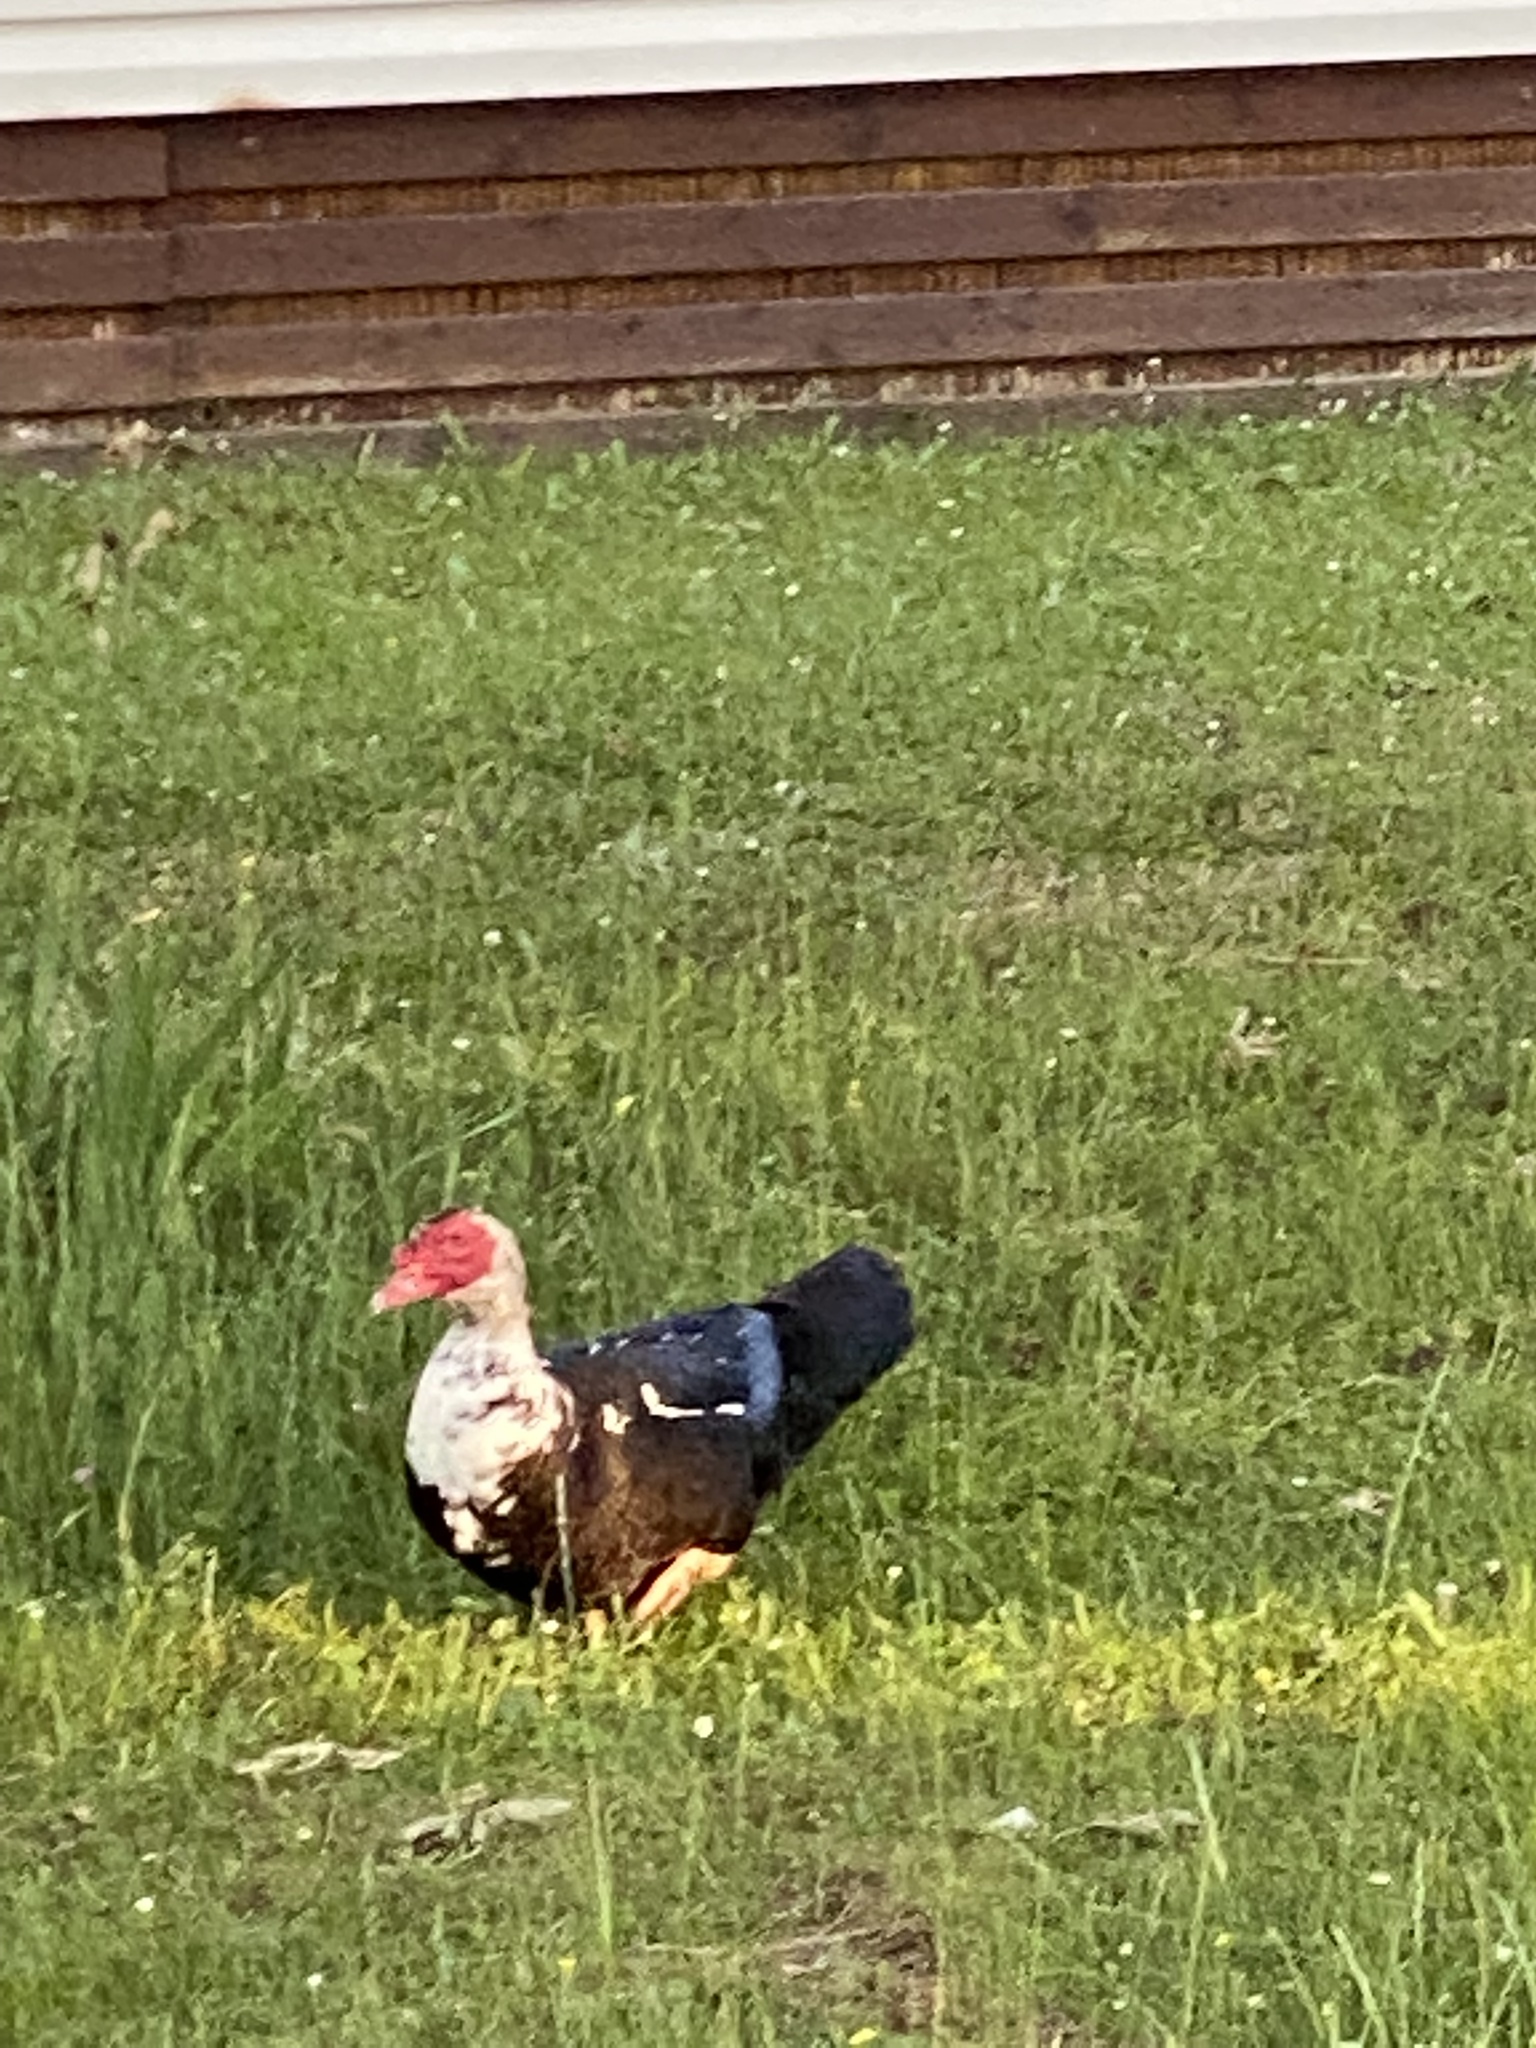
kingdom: Animalia
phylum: Chordata
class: Aves
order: Anseriformes
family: Anatidae
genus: Cairina
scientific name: Cairina moschata
